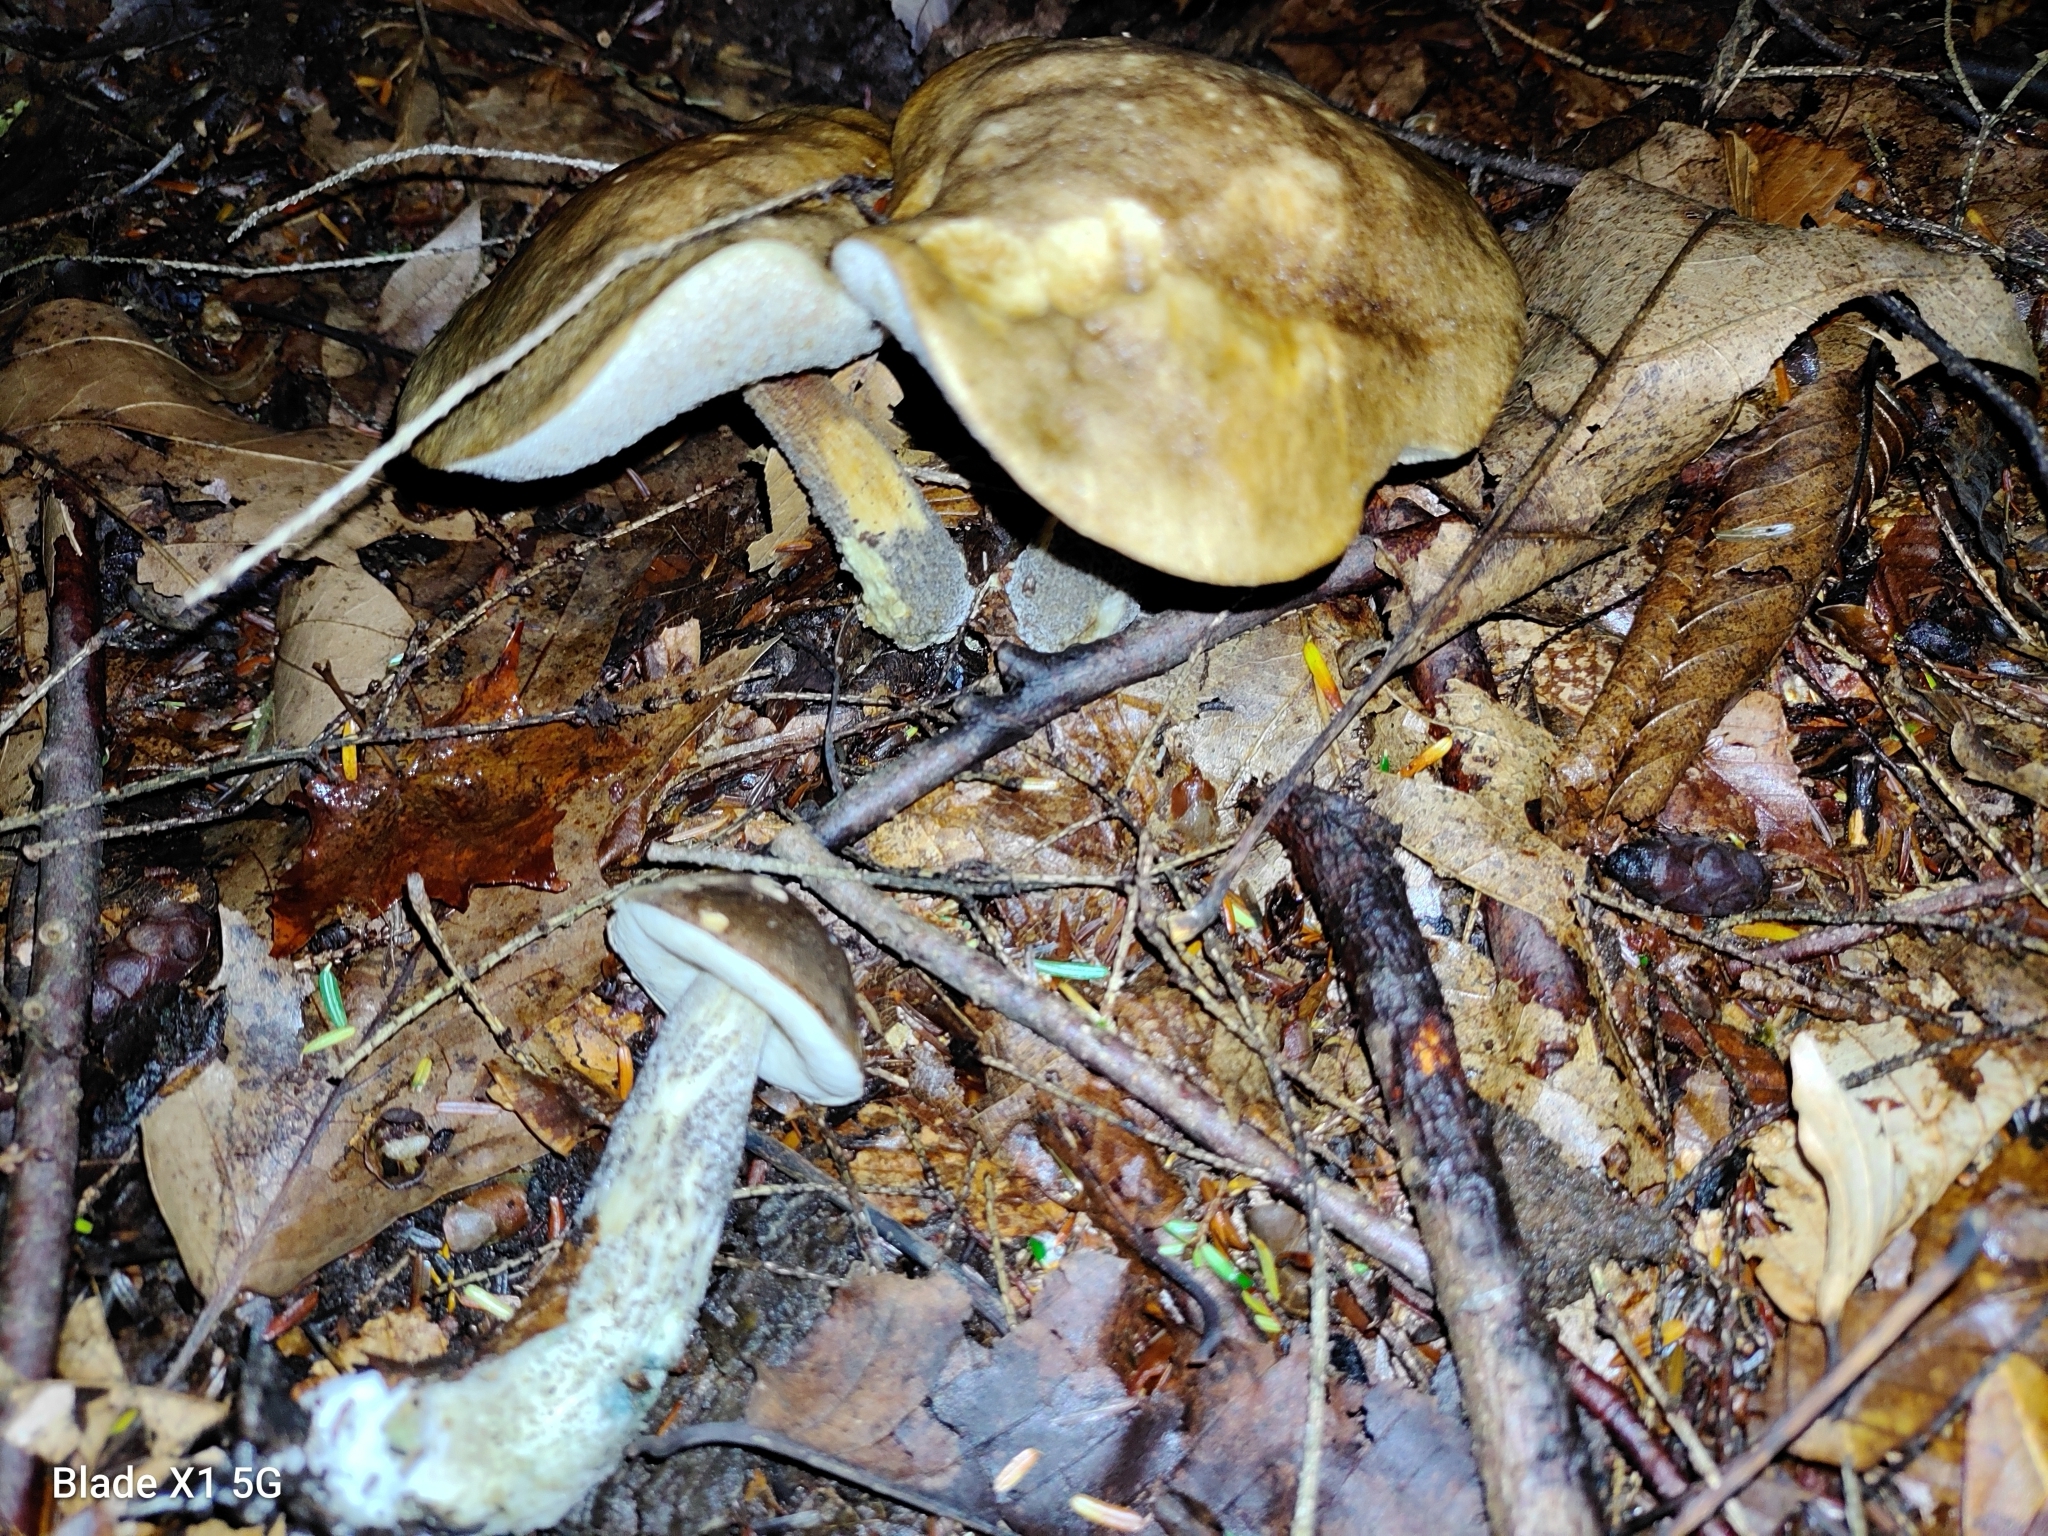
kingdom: Fungi
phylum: Basidiomycota
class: Agaricomycetes
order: Boletales
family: Boletaceae
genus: Leccinum
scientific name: Leccinum variicolor
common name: Mottled bolete
